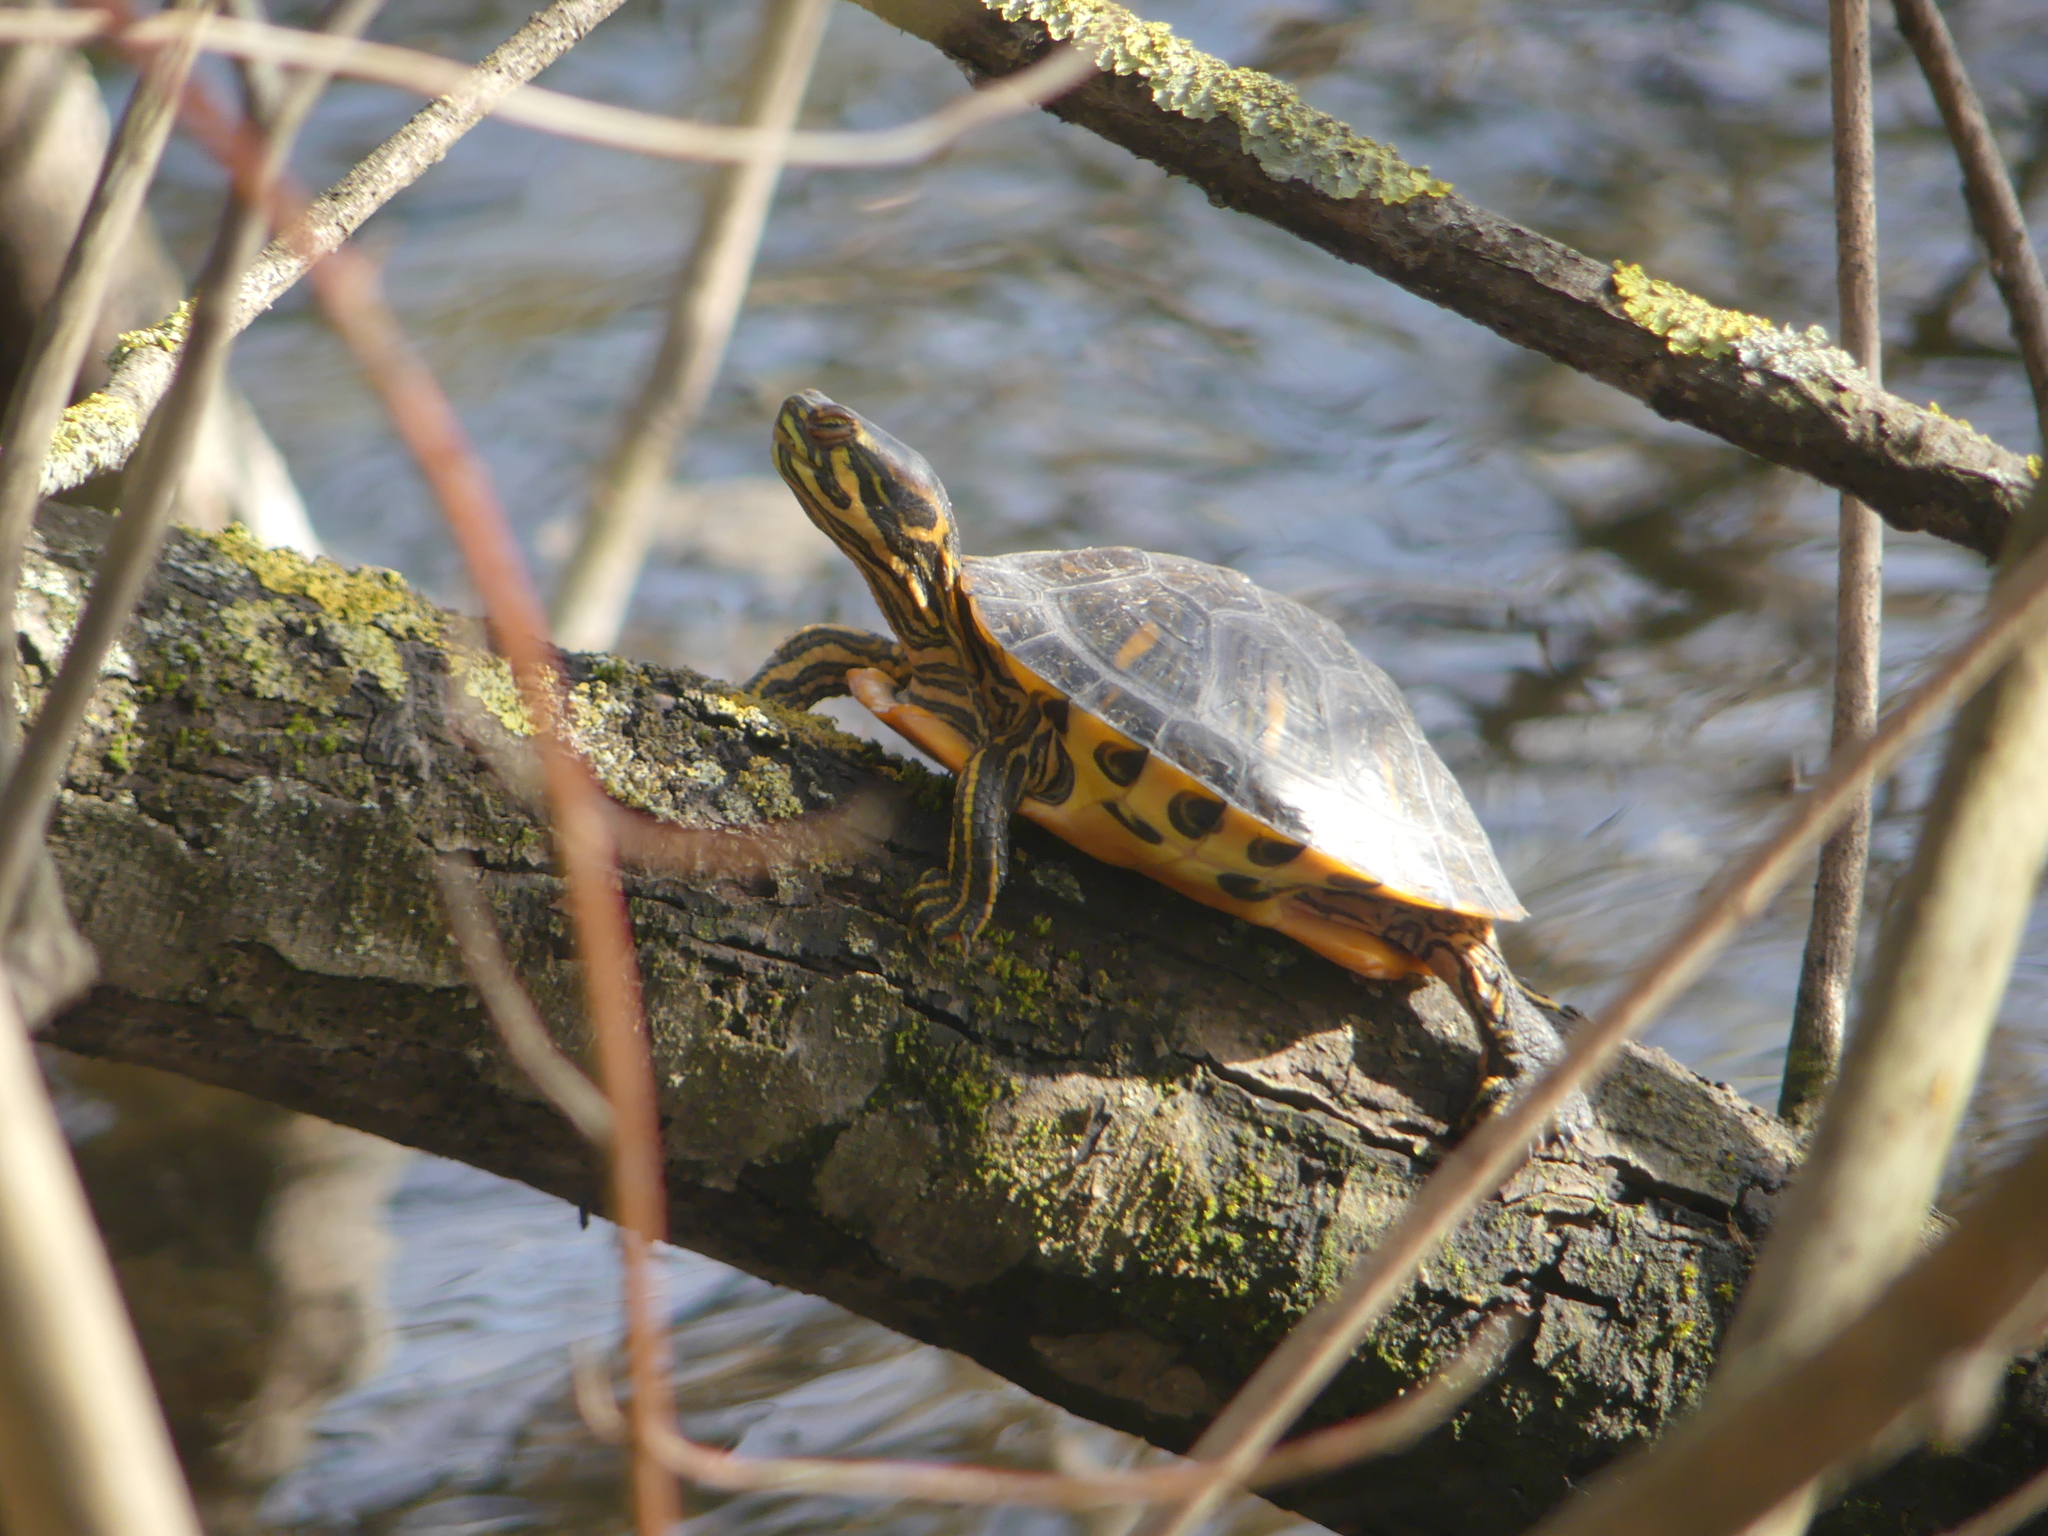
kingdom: Animalia
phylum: Chordata
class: Testudines
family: Emydidae
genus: Trachemys
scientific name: Trachemys scripta
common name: Slider
